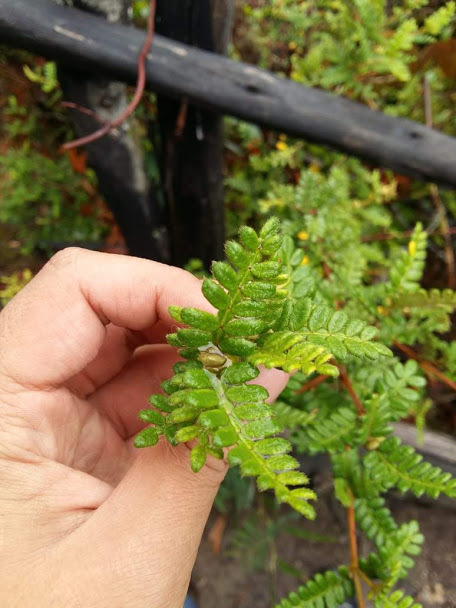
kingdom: Plantae
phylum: Tracheophyta
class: Magnoliopsida
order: Oxalidales
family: Cunoniaceae
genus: Weinmannia
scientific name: Weinmannia tomentosa
